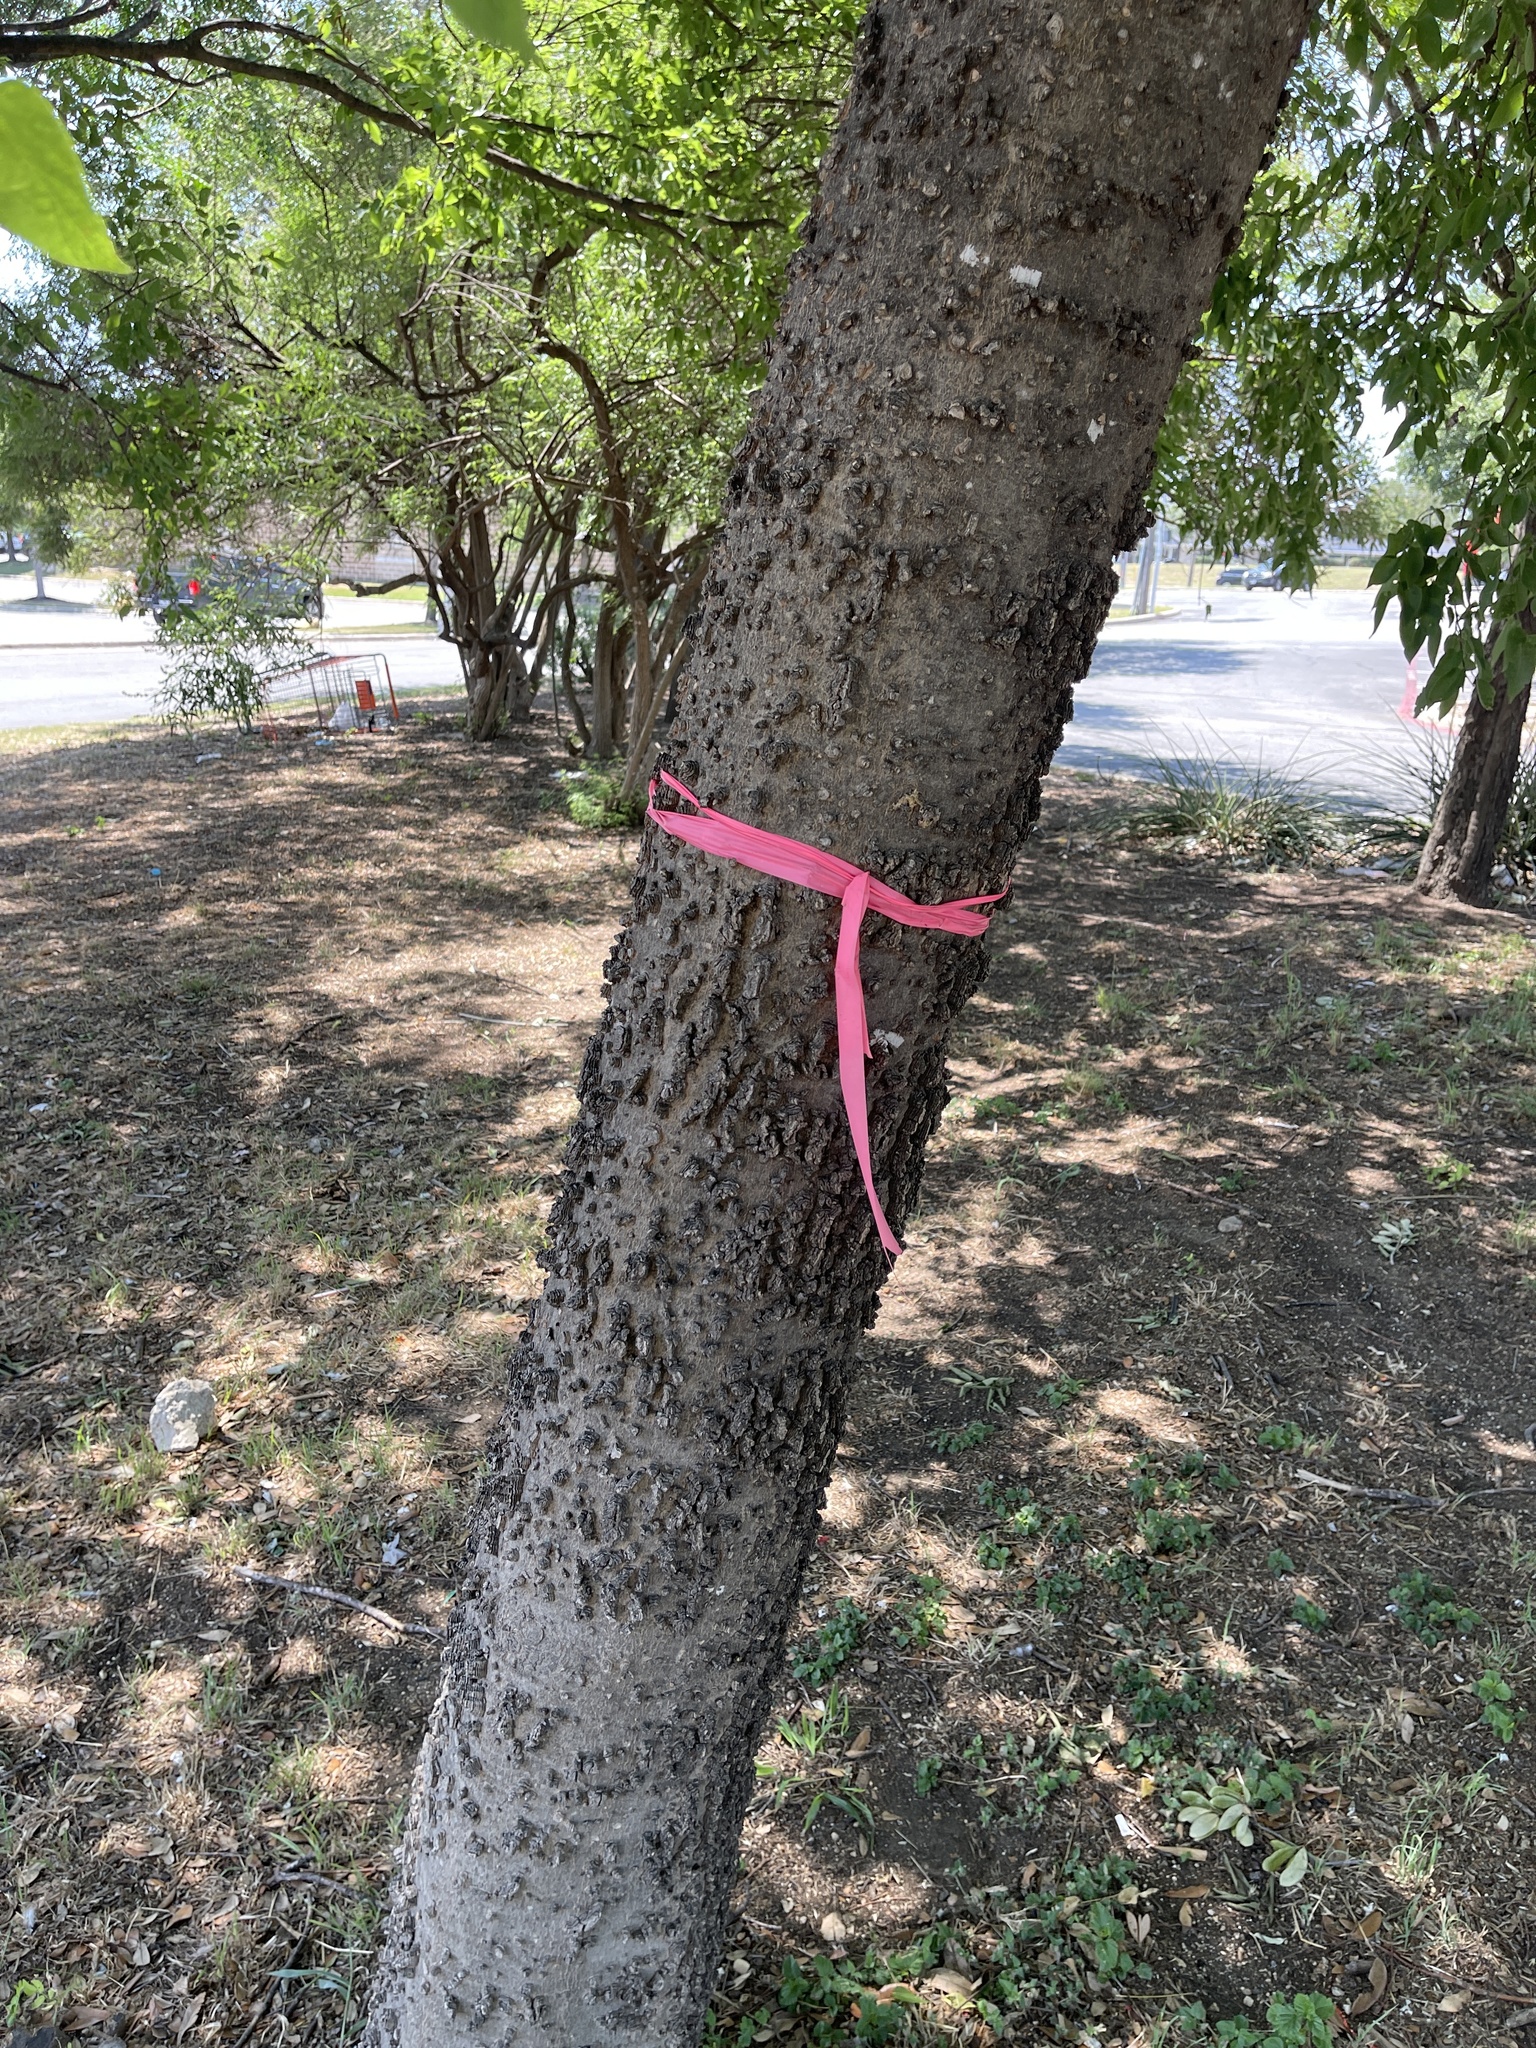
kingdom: Plantae
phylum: Tracheophyta
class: Magnoliopsida
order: Rosales
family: Cannabaceae
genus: Celtis
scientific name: Celtis laevigata
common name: Sugarberry
